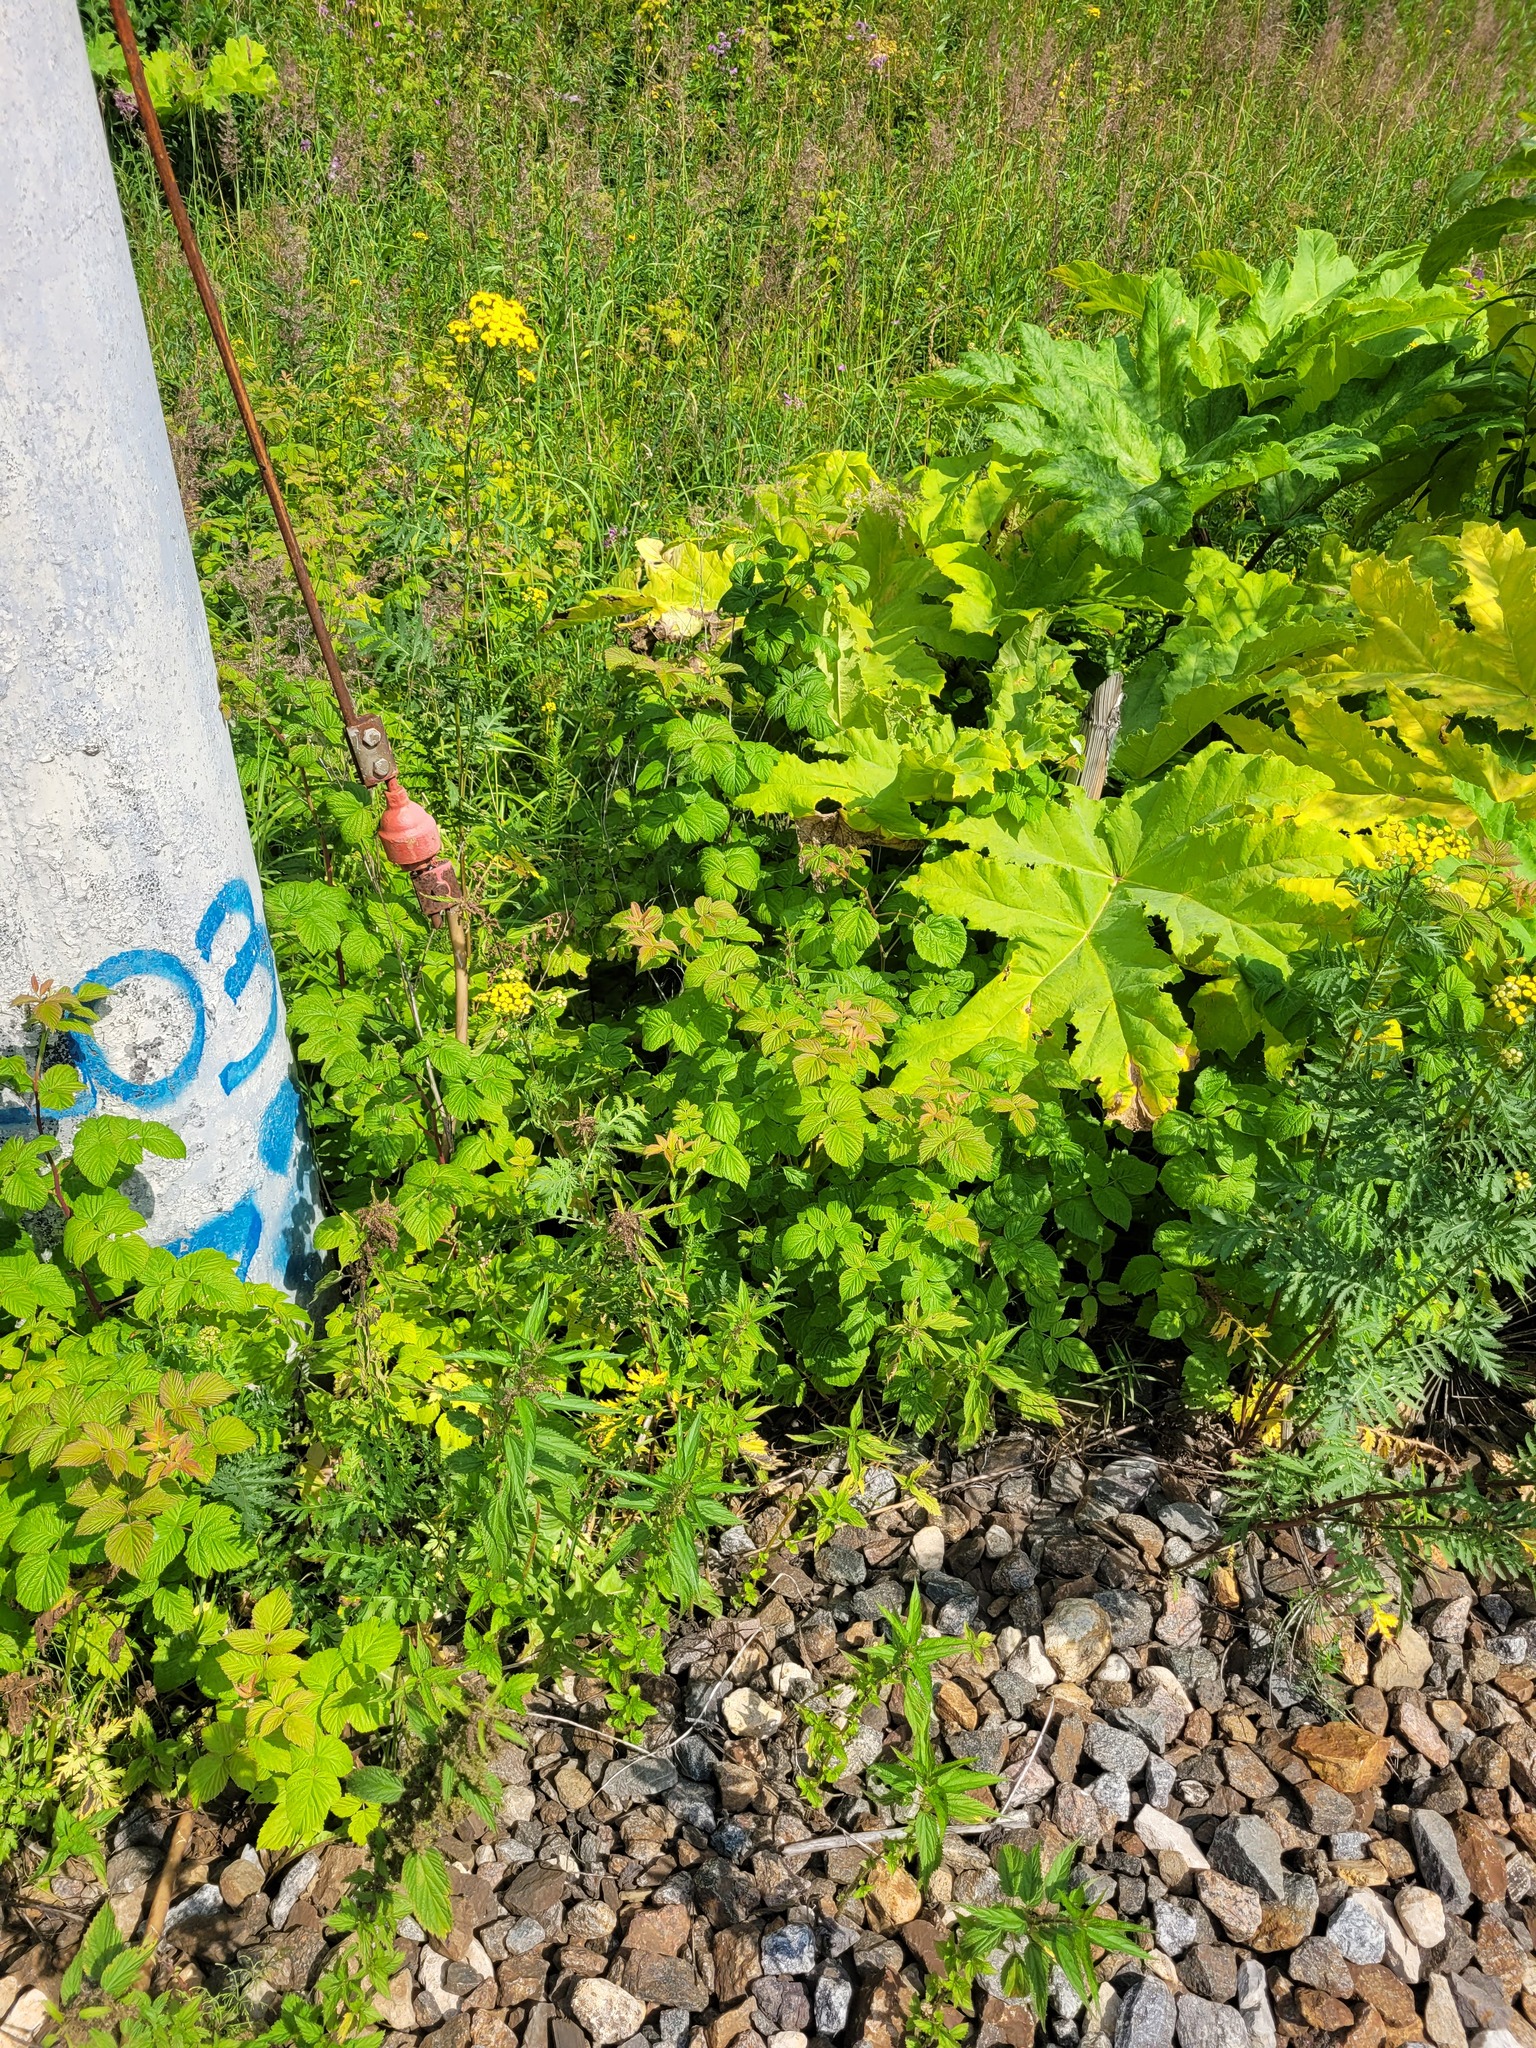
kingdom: Plantae
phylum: Tracheophyta
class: Magnoliopsida
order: Rosales
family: Rosaceae
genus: Rubus
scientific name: Rubus idaeus
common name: Raspberry
